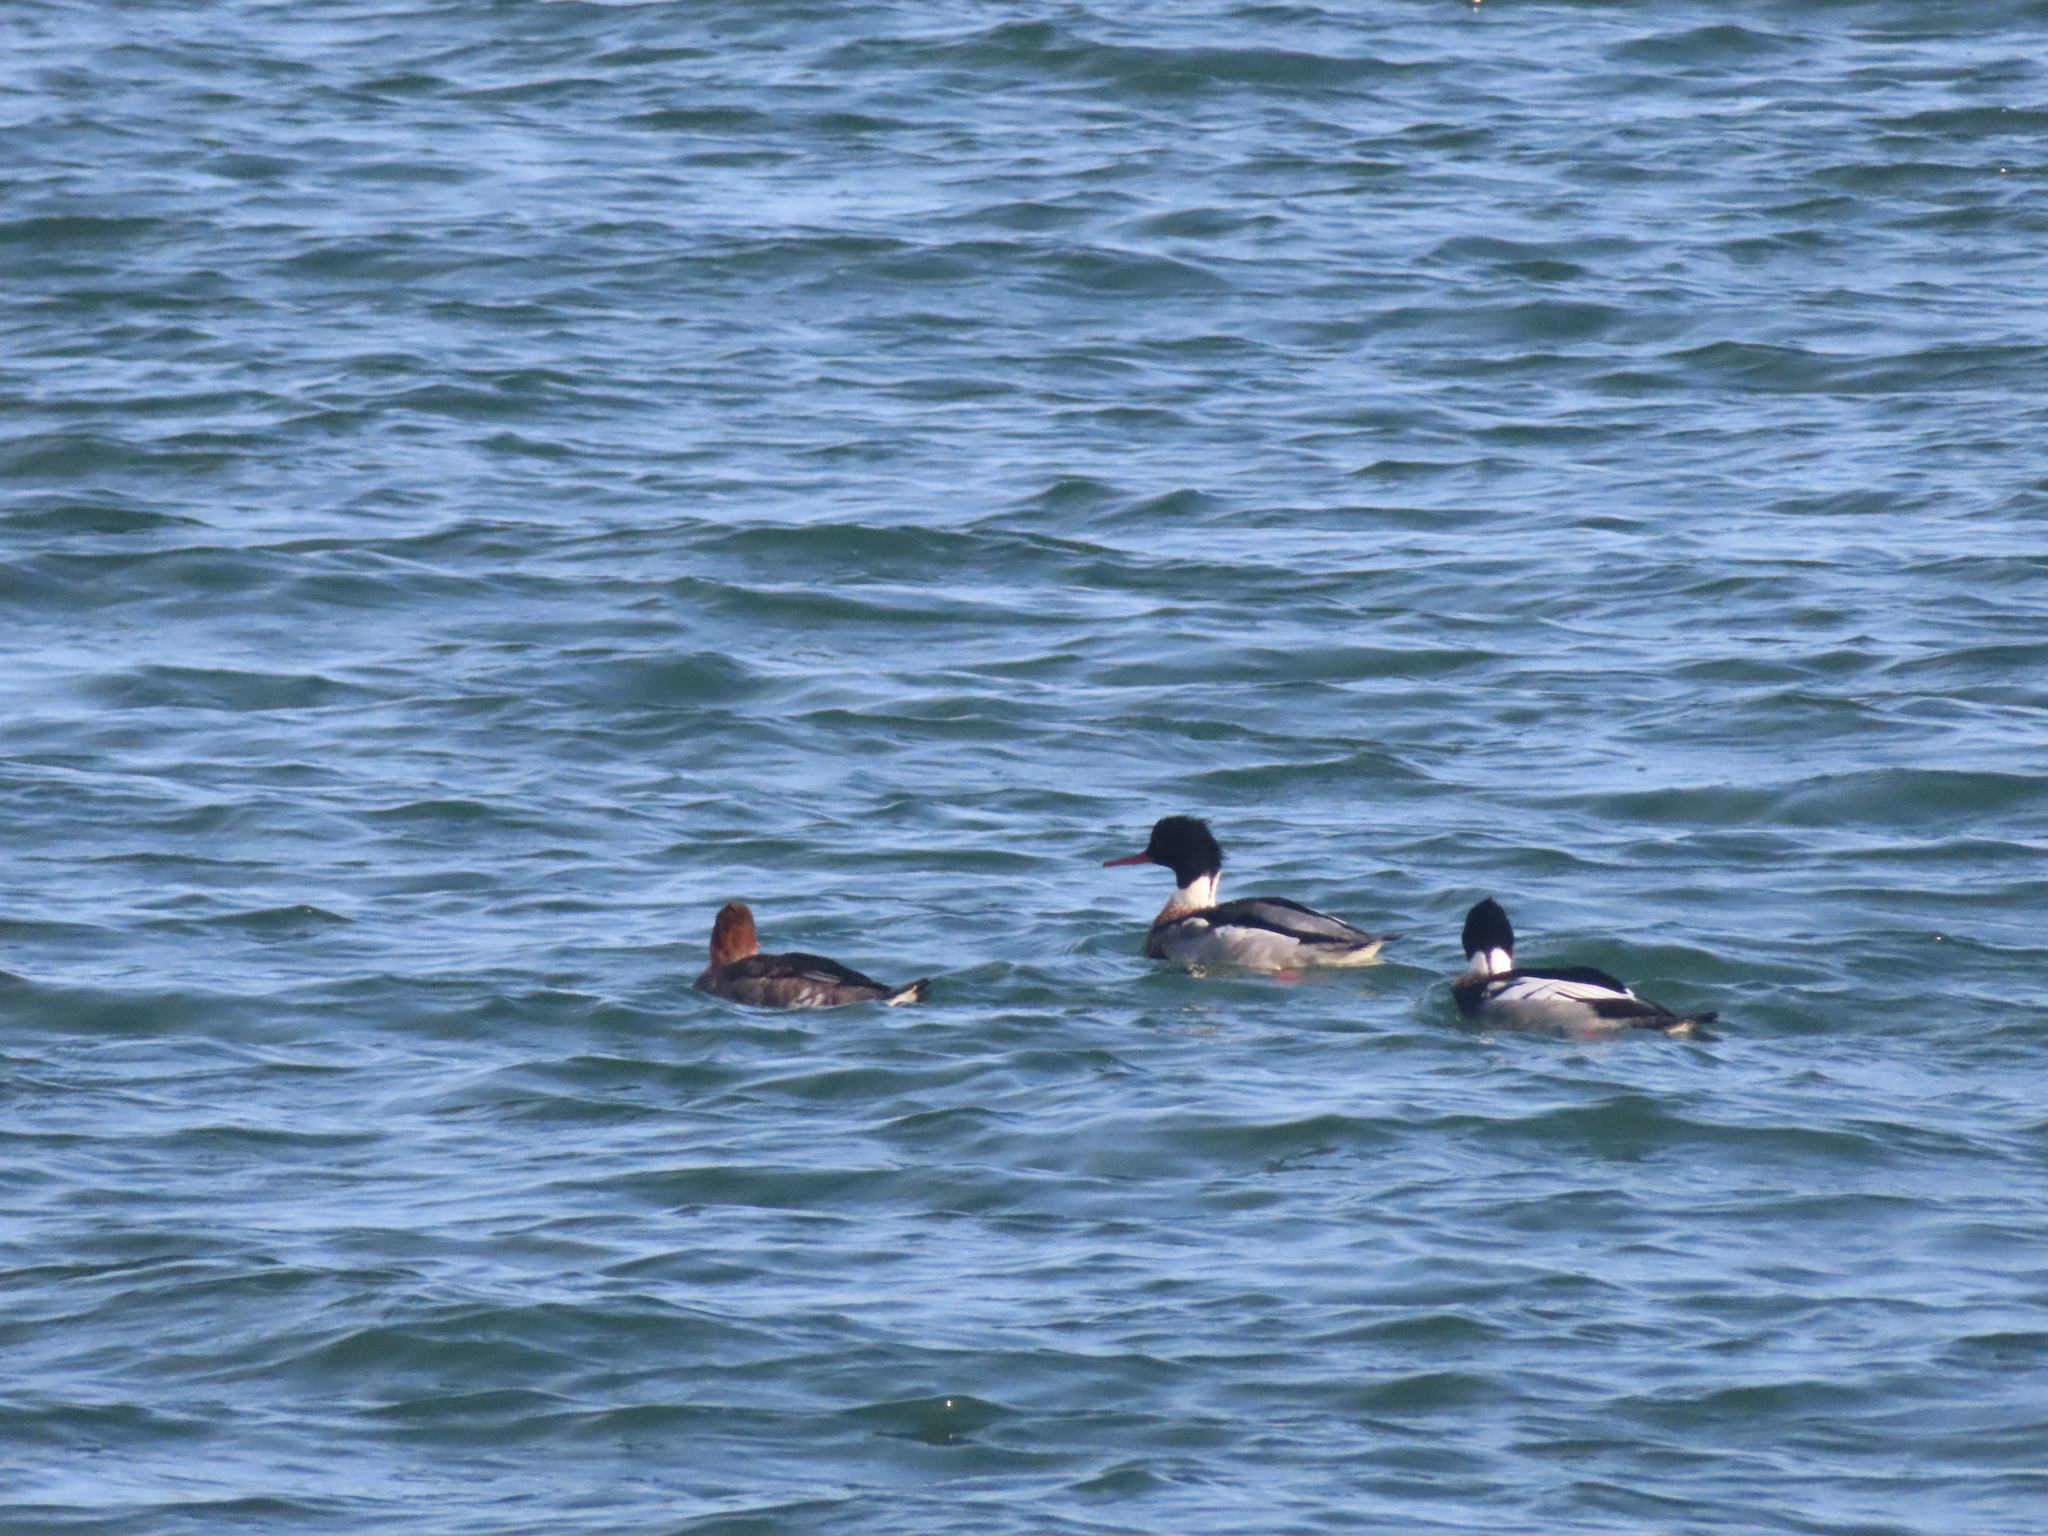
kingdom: Animalia
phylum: Chordata
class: Aves
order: Anseriformes
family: Anatidae
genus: Mergus
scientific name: Mergus serrator
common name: Red-breasted merganser
